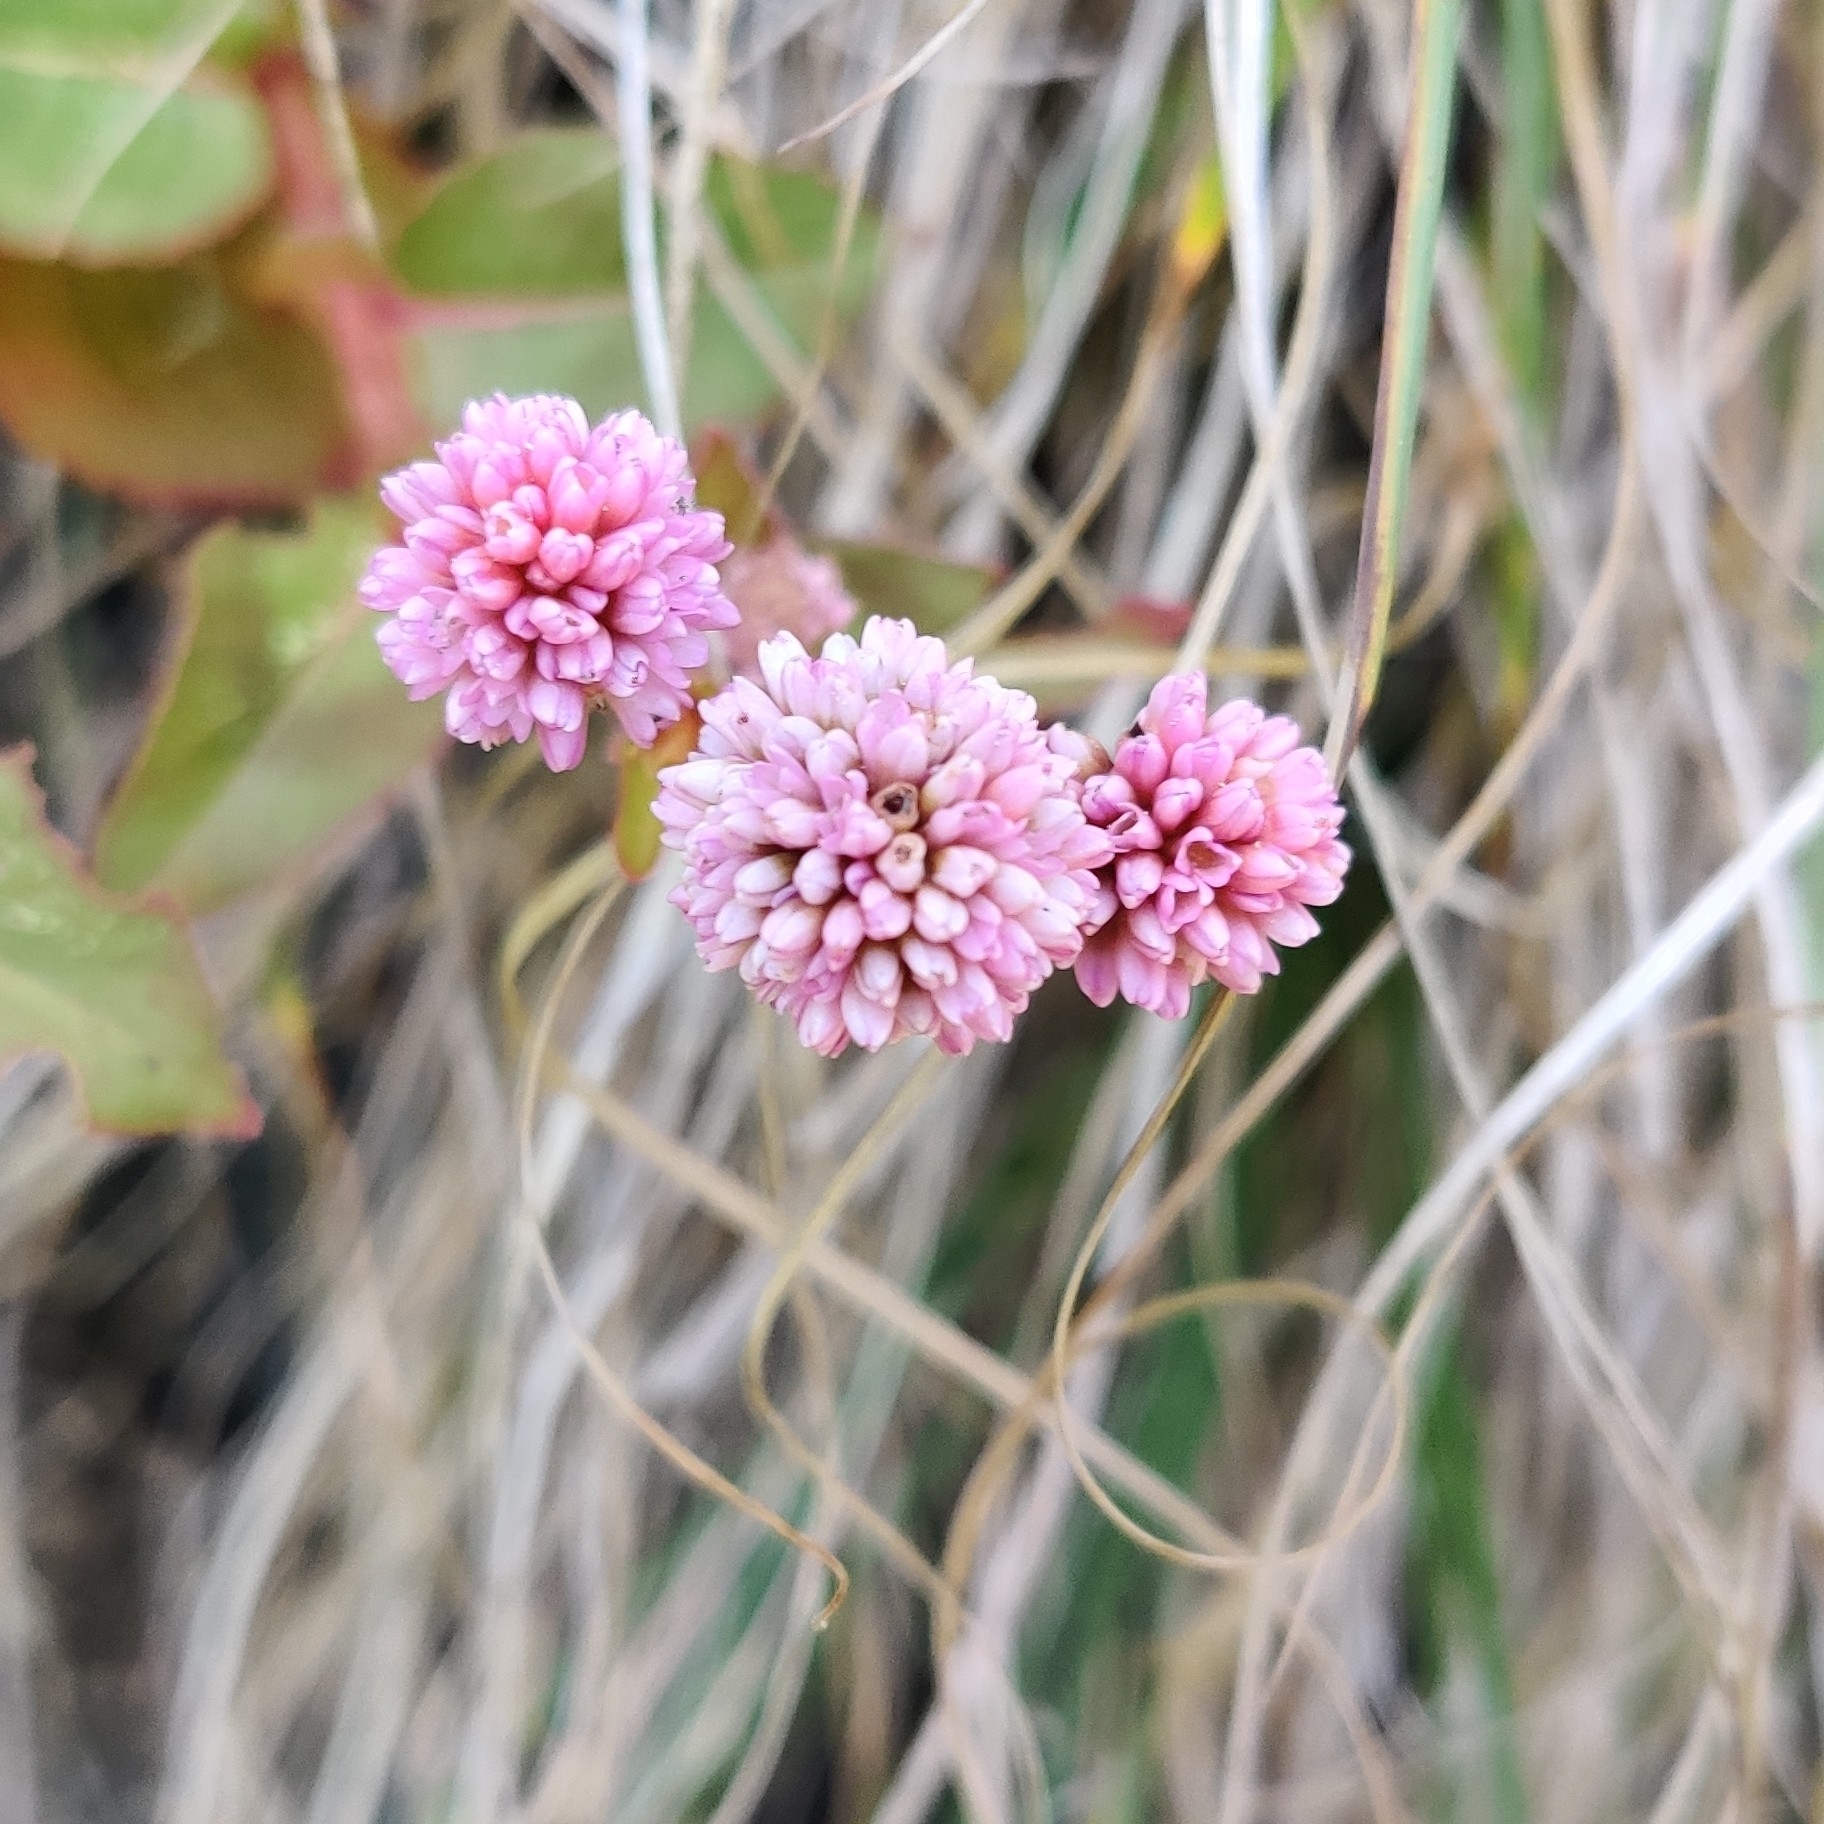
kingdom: Plantae
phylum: Tracheophyta
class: Magnoliopsida
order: Caryophyllales
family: Polygonaceae
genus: Persicaria
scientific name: Persicaria capitata
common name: Pinkhead smartweed
